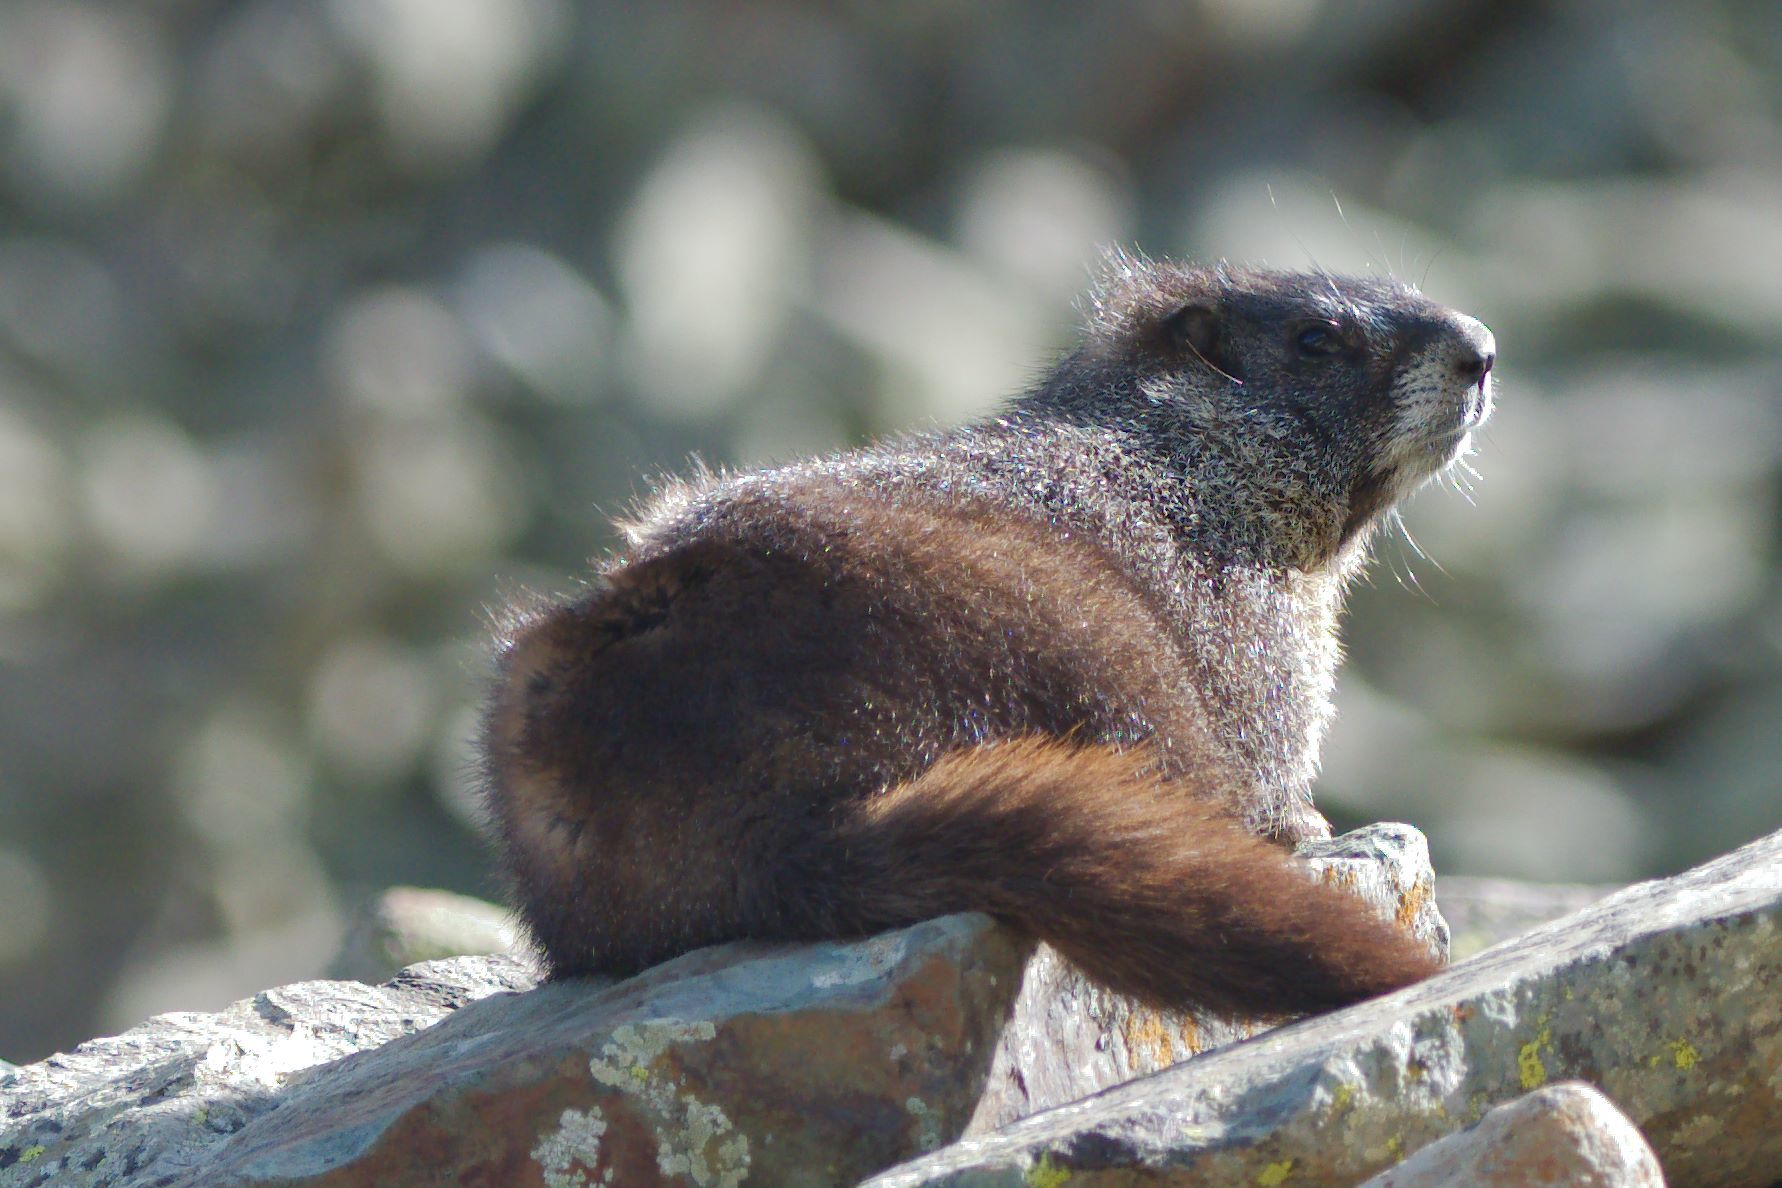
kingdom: Animalia
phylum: Chordata
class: Mammalia
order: Rodentia
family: Sciuridae
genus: Marmota
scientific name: Marmota flaviventris
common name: Yellow-bellied marmot
